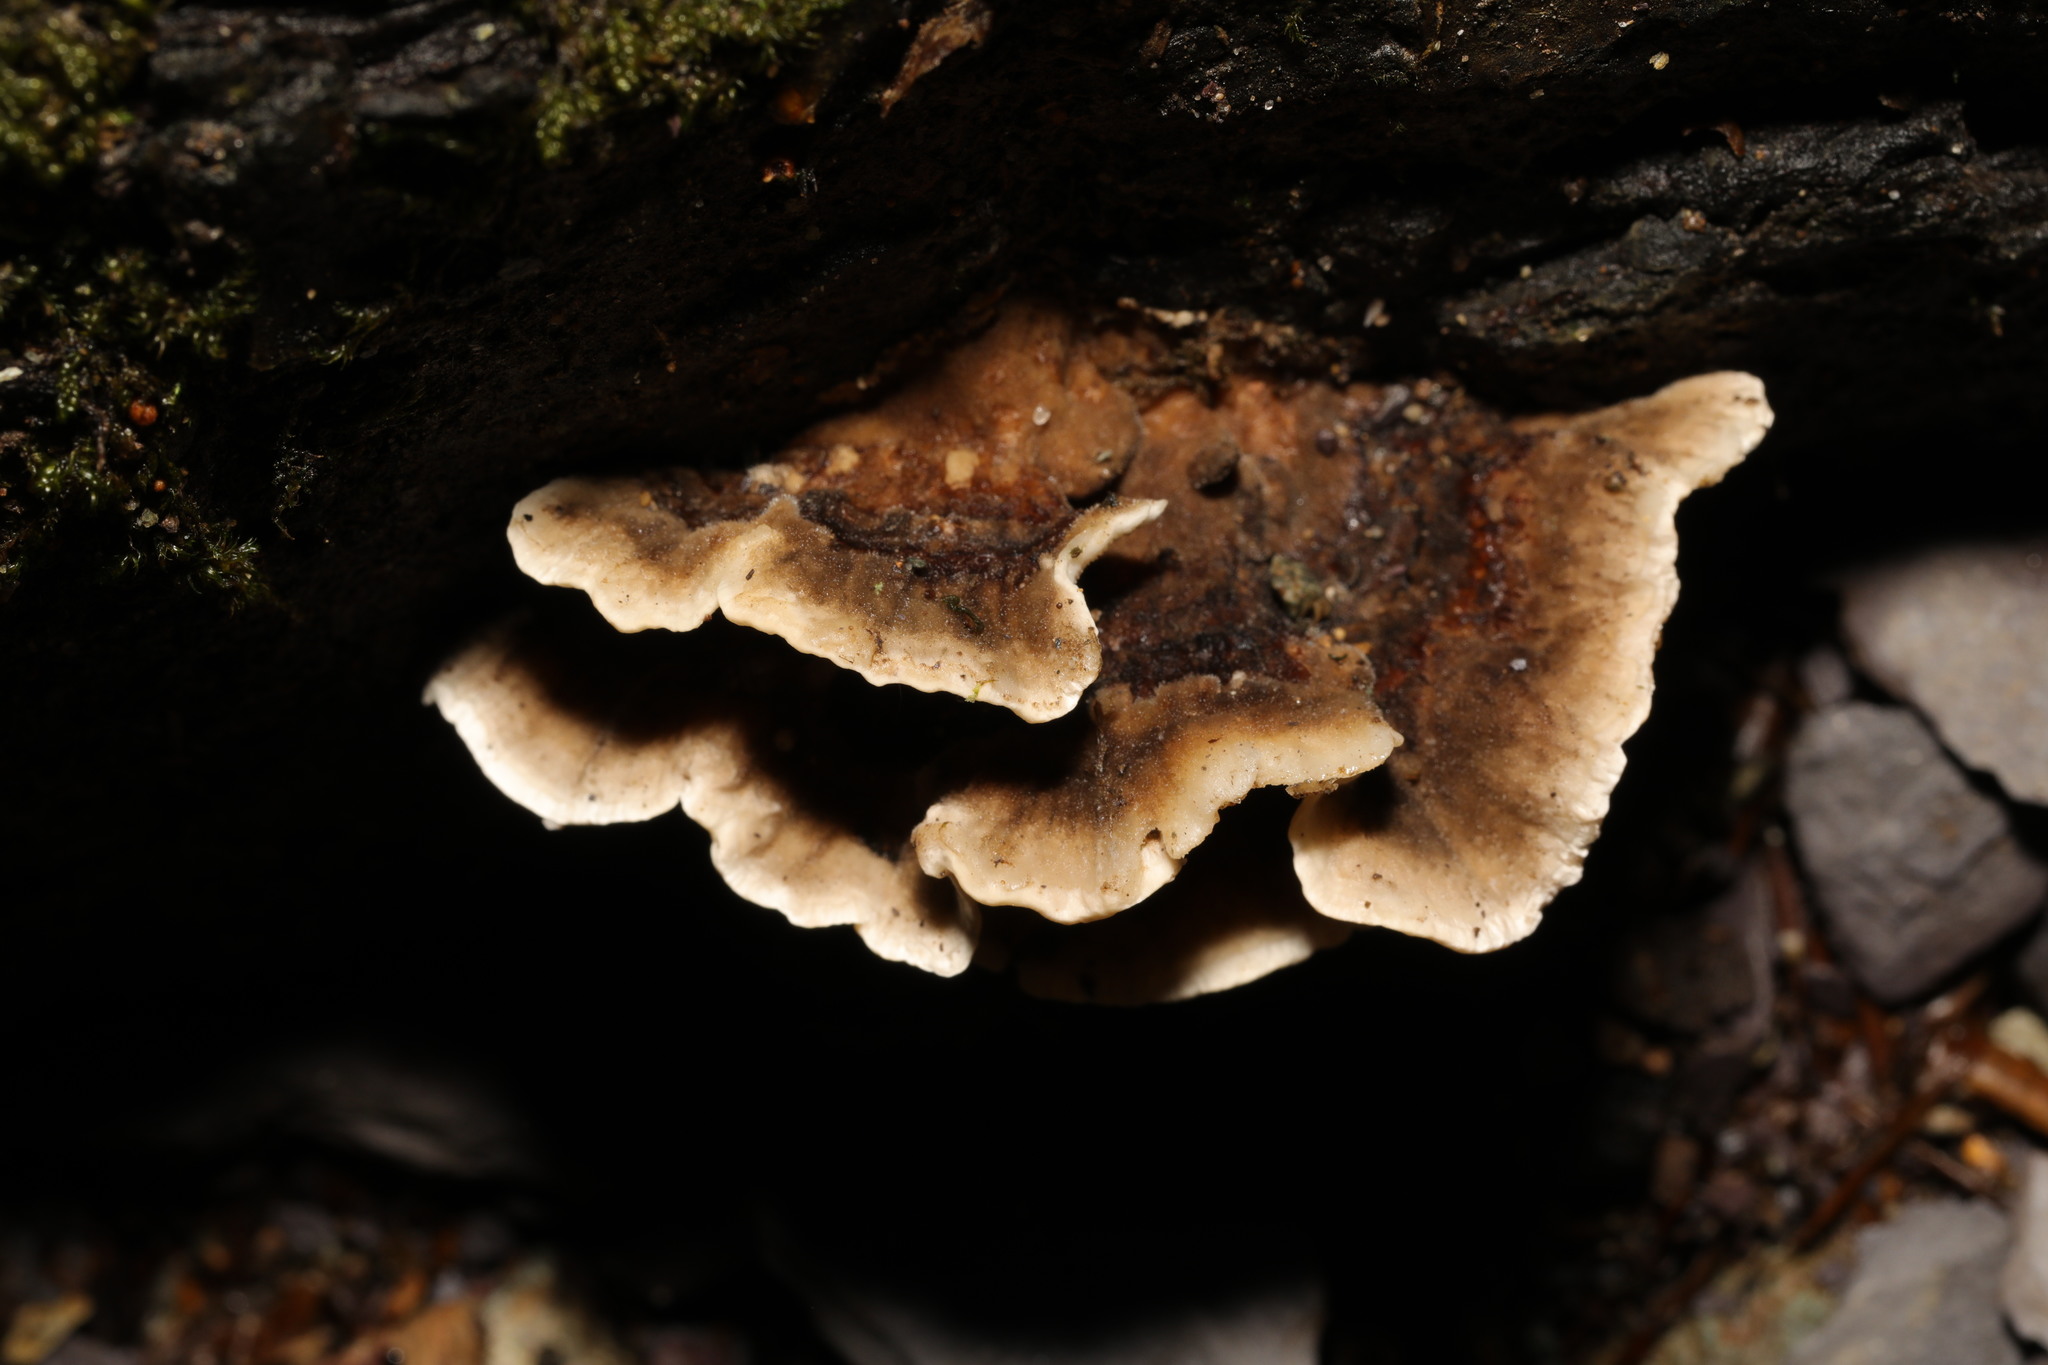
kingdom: Fungi
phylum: Basidiomycota
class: Agaricomycetes
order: Polyporales
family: Phanerochaetaceae
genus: Bjerkandera
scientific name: Bjerkandera adusta
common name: Smoky bracket
